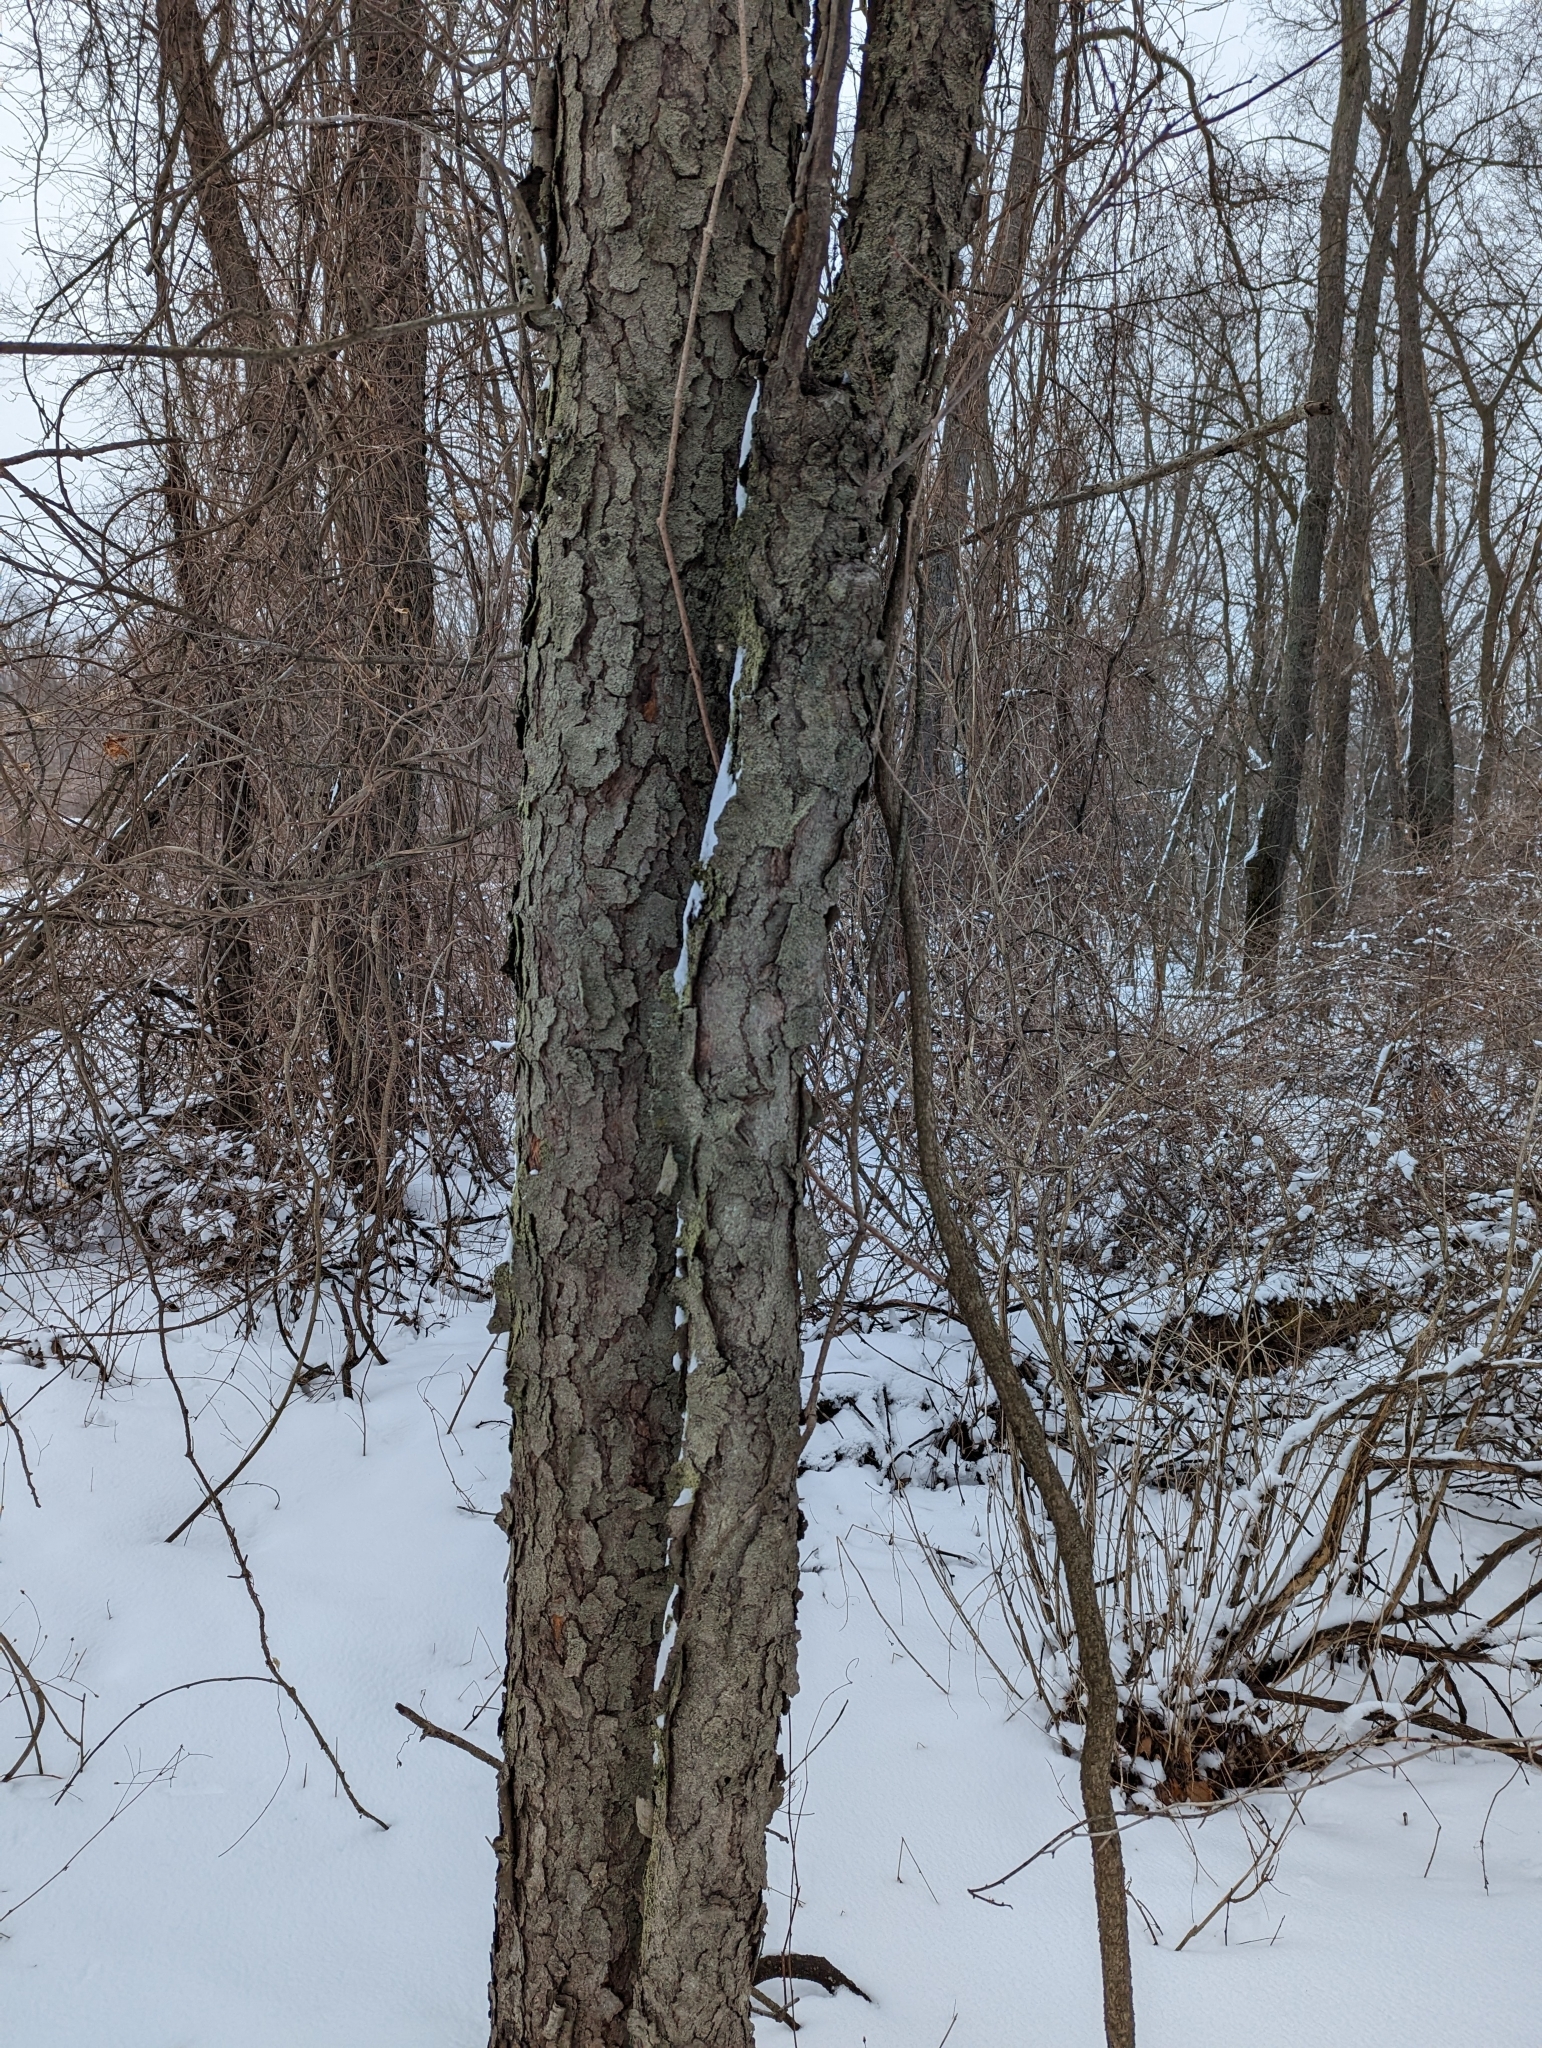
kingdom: Plantae
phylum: Tracheophyta
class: Magnoliopsida
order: Rosales
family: Rosaceae
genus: Prunus
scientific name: Prunus serotina
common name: Black cherry
